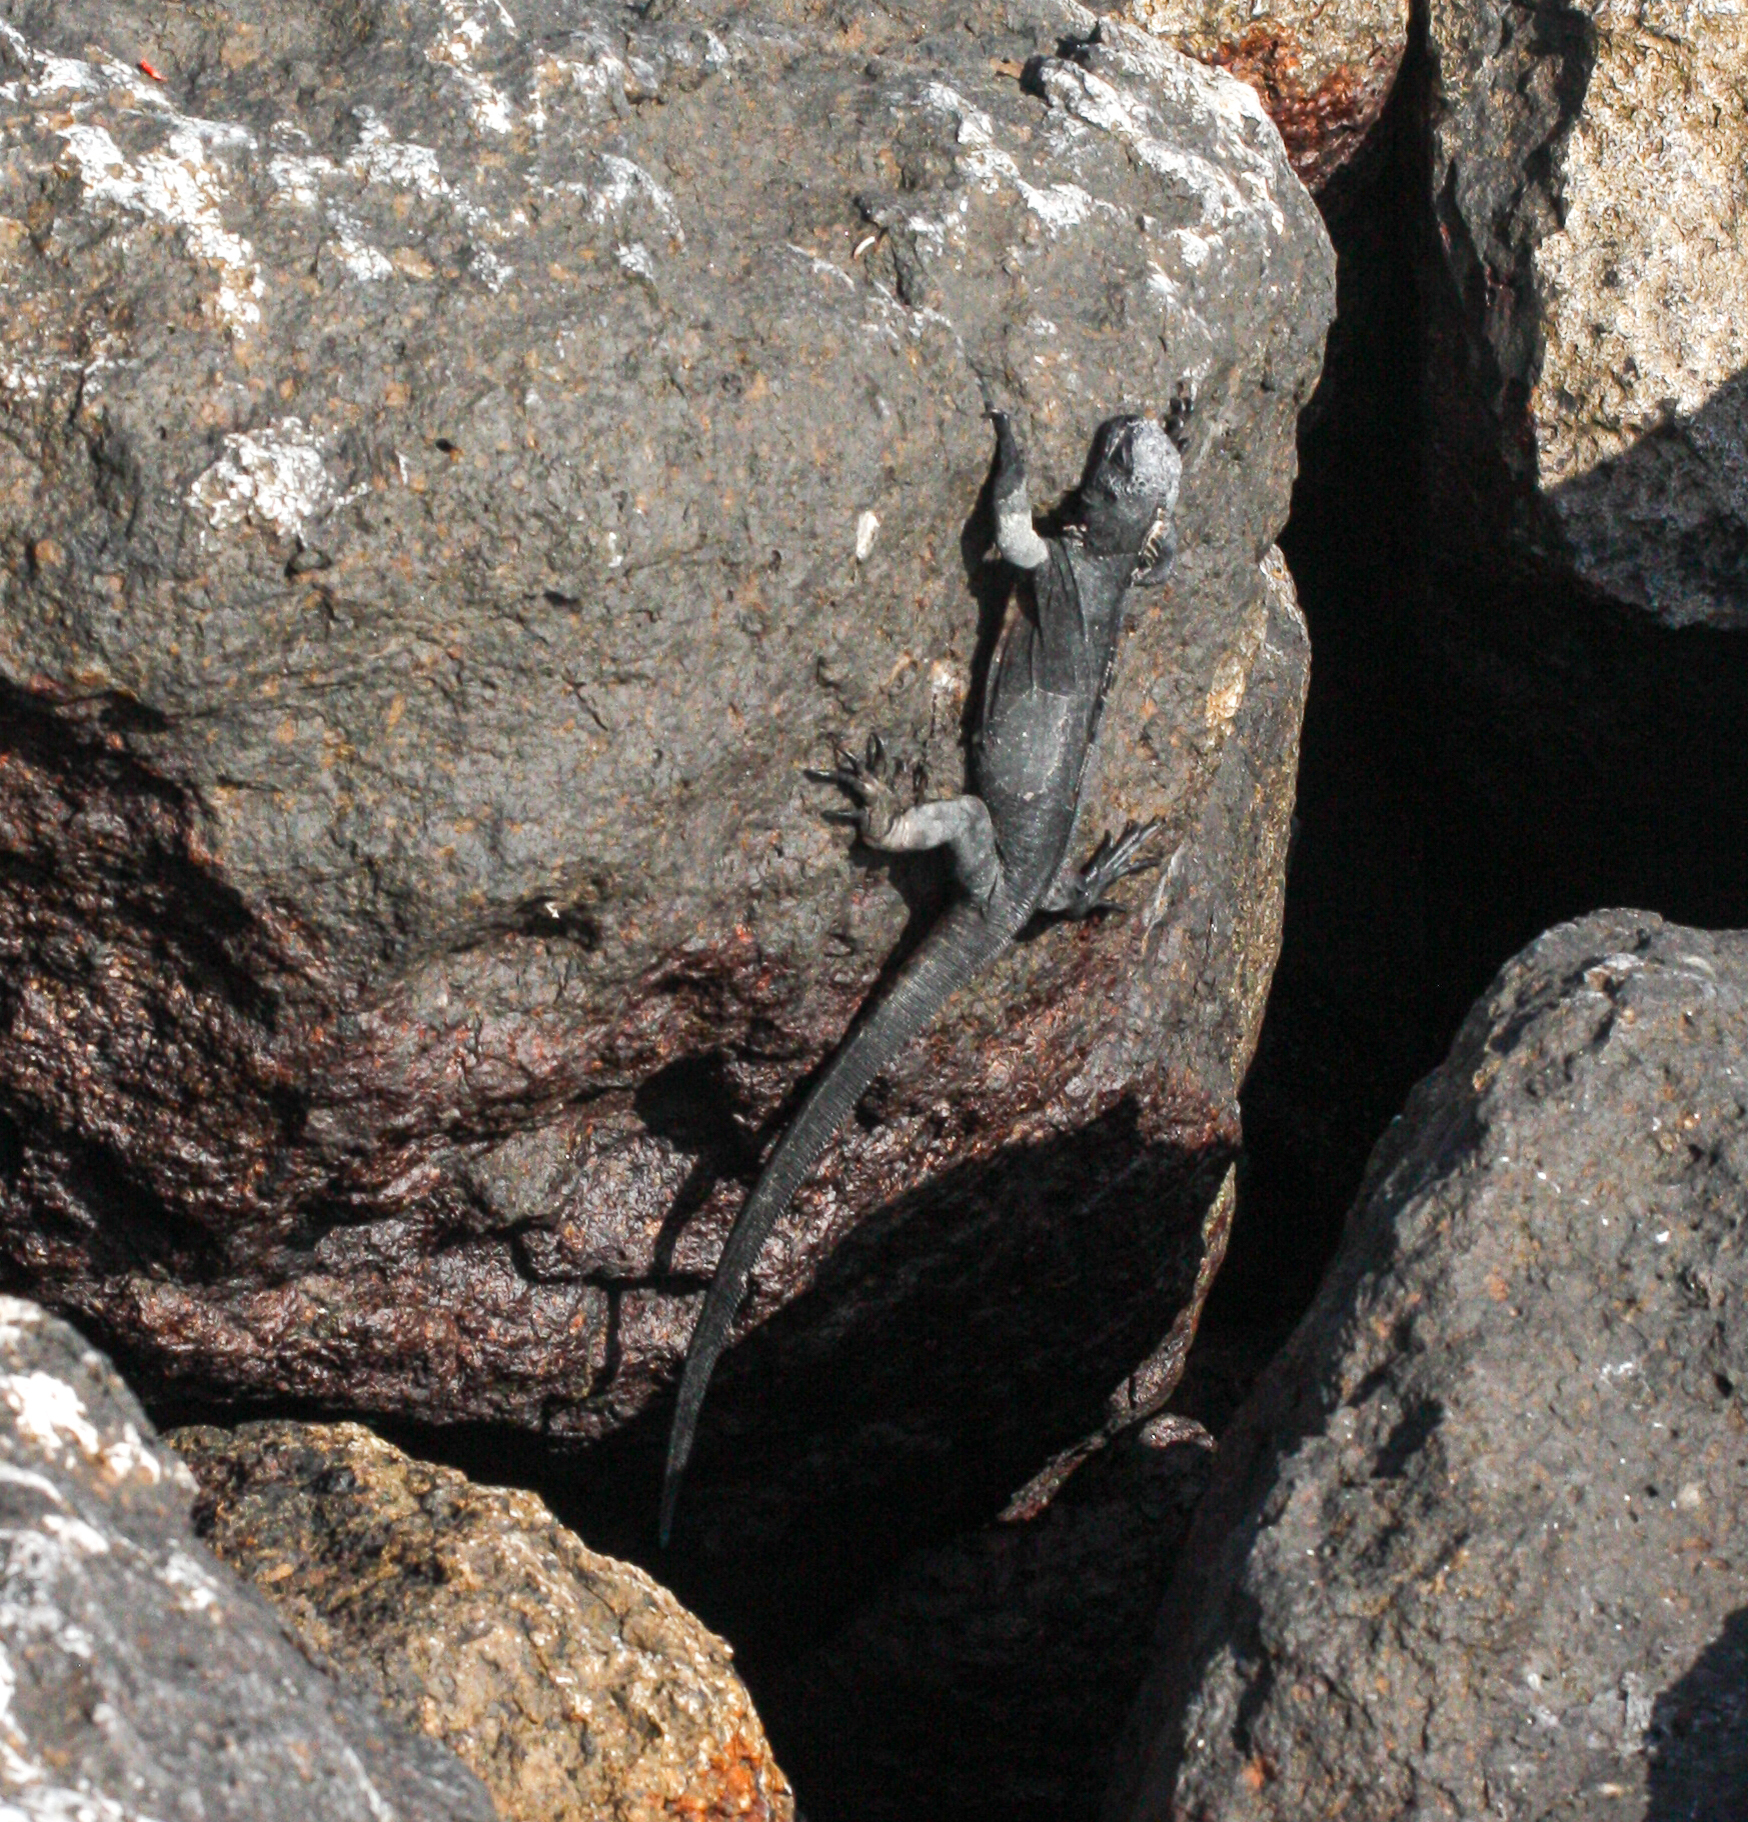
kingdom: Animalia
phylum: Chordata
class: Squamata
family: Iguanidae
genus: Amblyrhynchus
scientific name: Amblyrhynchus cristatus
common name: Marine iguana
